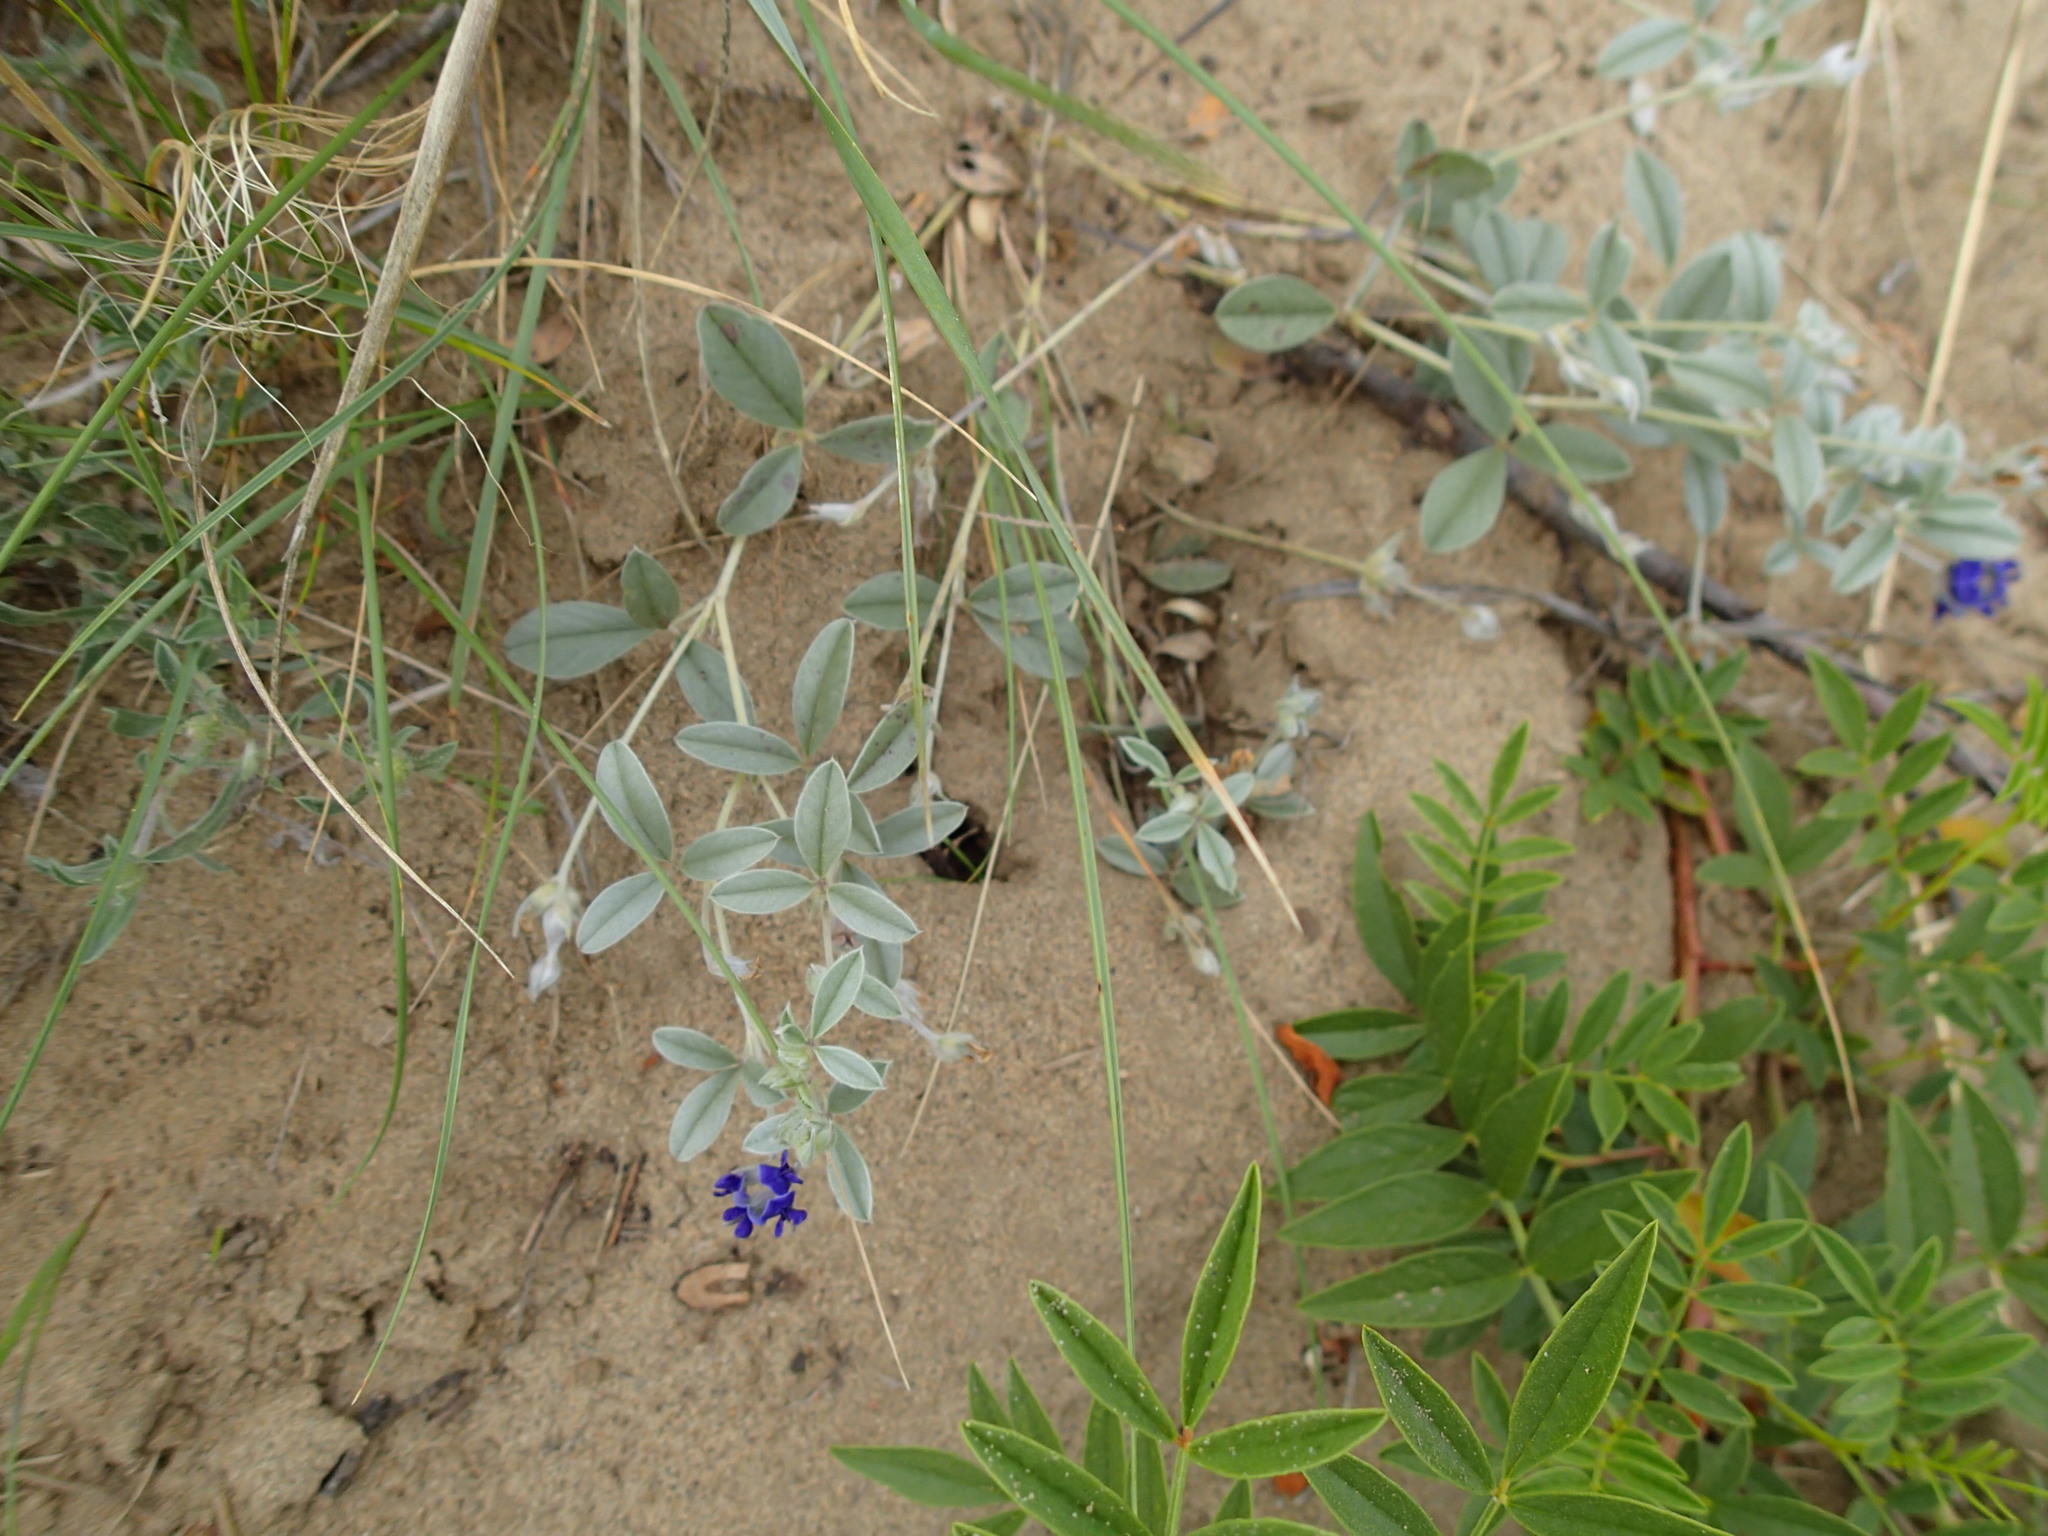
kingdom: Plantae
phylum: Tracheophyta
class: Magnoliopsida
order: Fabales
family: Fabaceae
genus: Pediomelum
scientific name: Pediomelum argophyllum
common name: Silver-leaved indian breadroot
